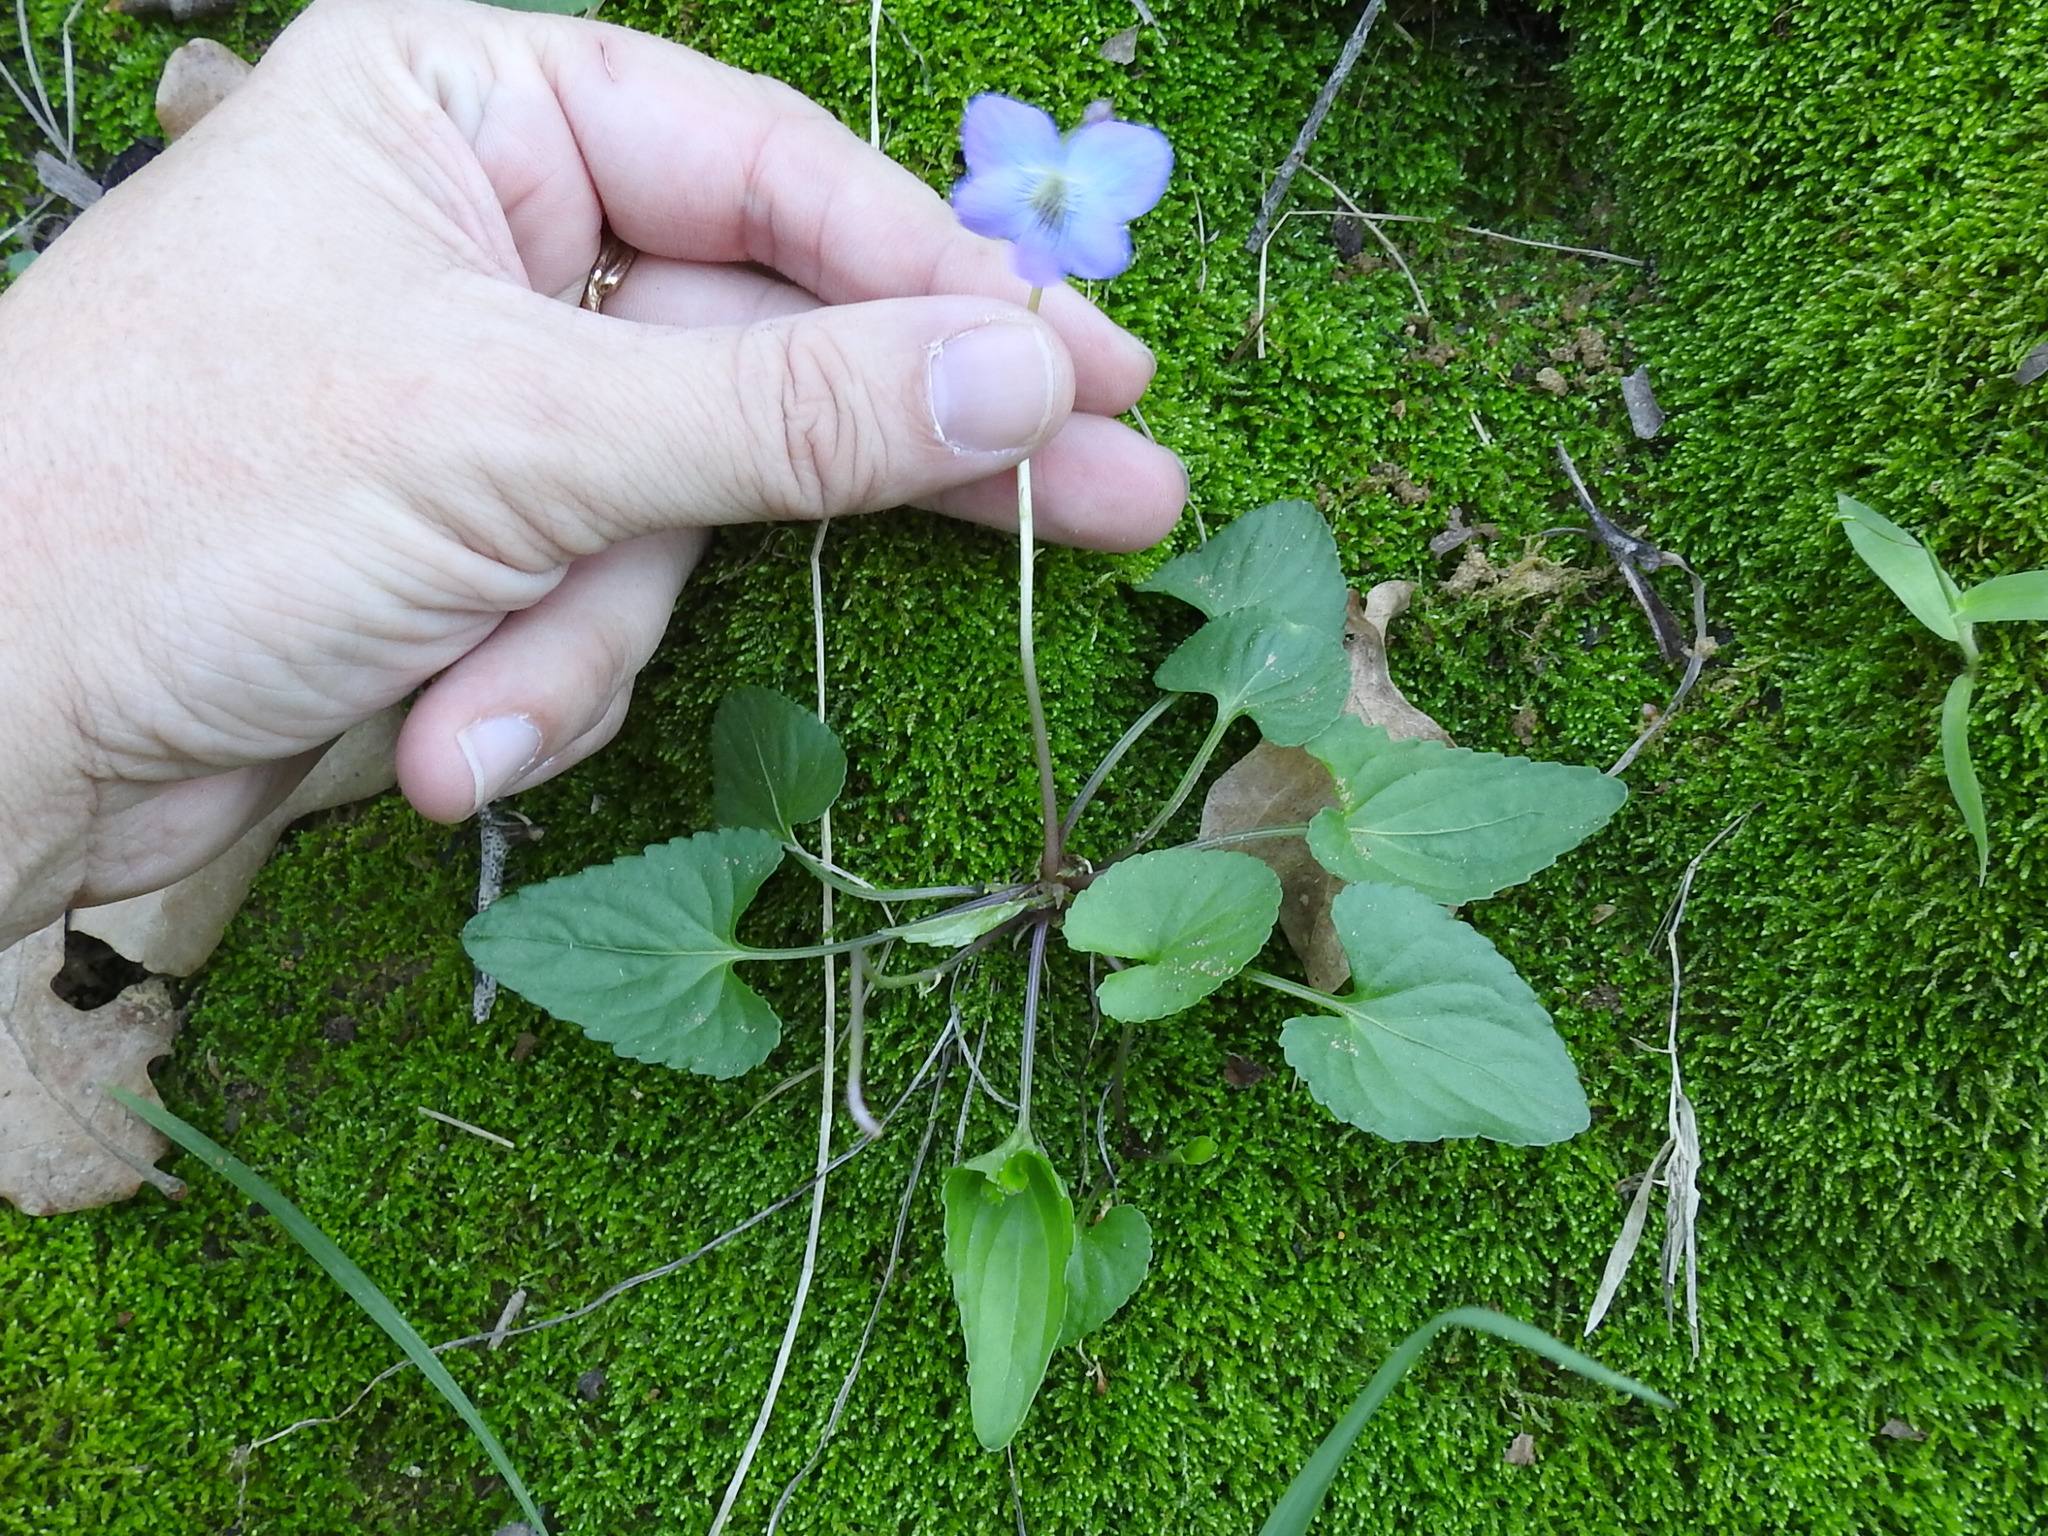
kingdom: Plantae
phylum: Tracheophyta
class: Magnoliopsida
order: Malpighiales
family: Violaceae
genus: Viola
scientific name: Viola sororia
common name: Dooryard violet
